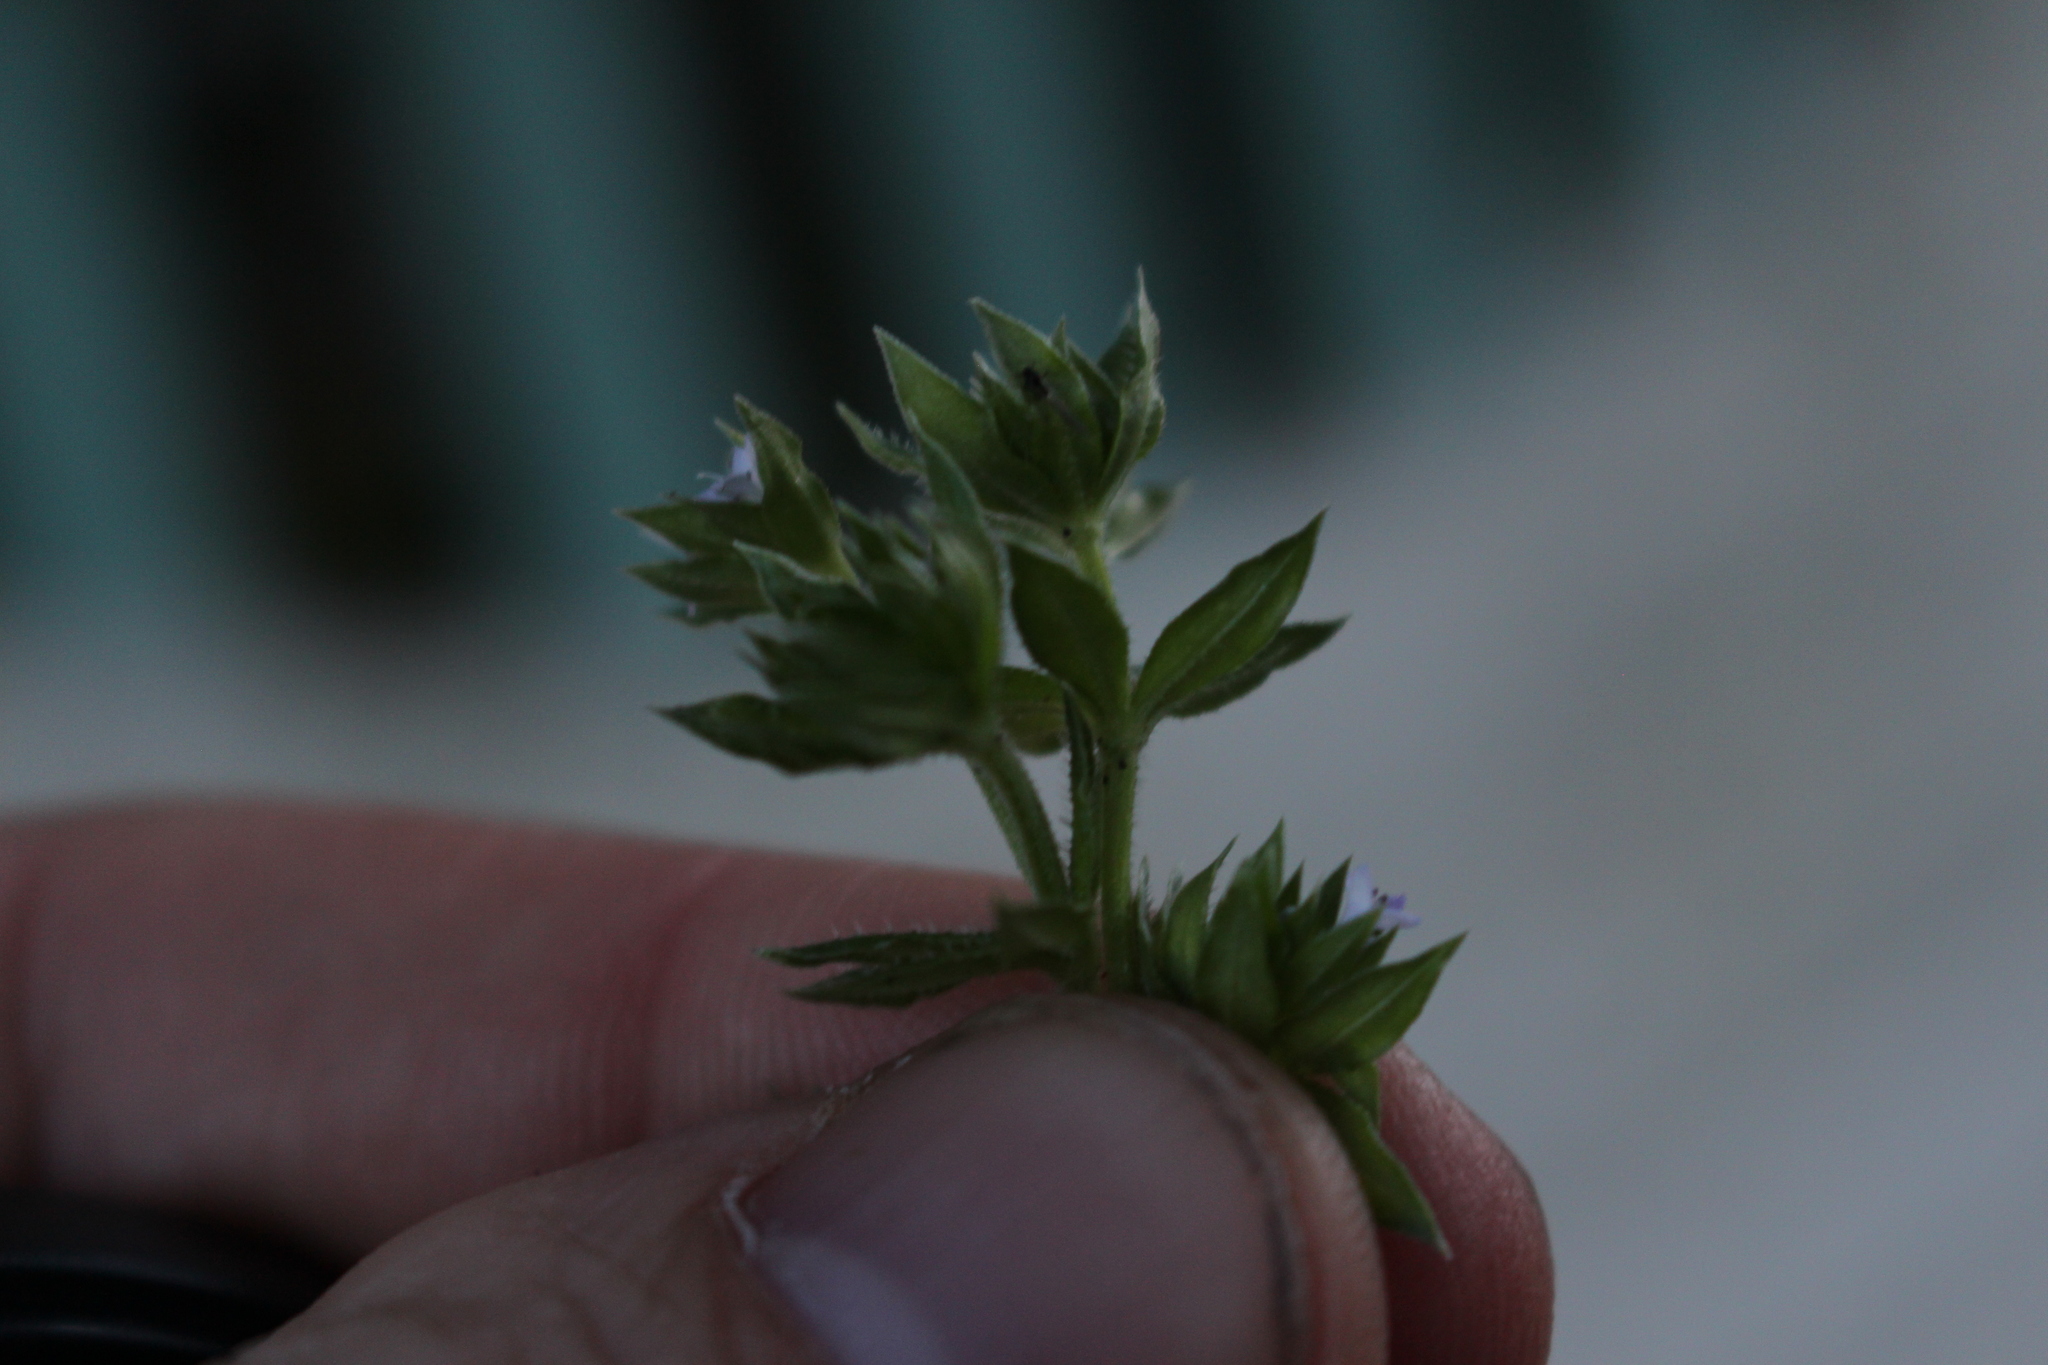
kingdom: Plantae
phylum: Tracheophyta
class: Magnoliopsida
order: Gentianales
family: Rubiaceae
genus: Sherardia
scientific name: Sherardia arvensis
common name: Field madder
